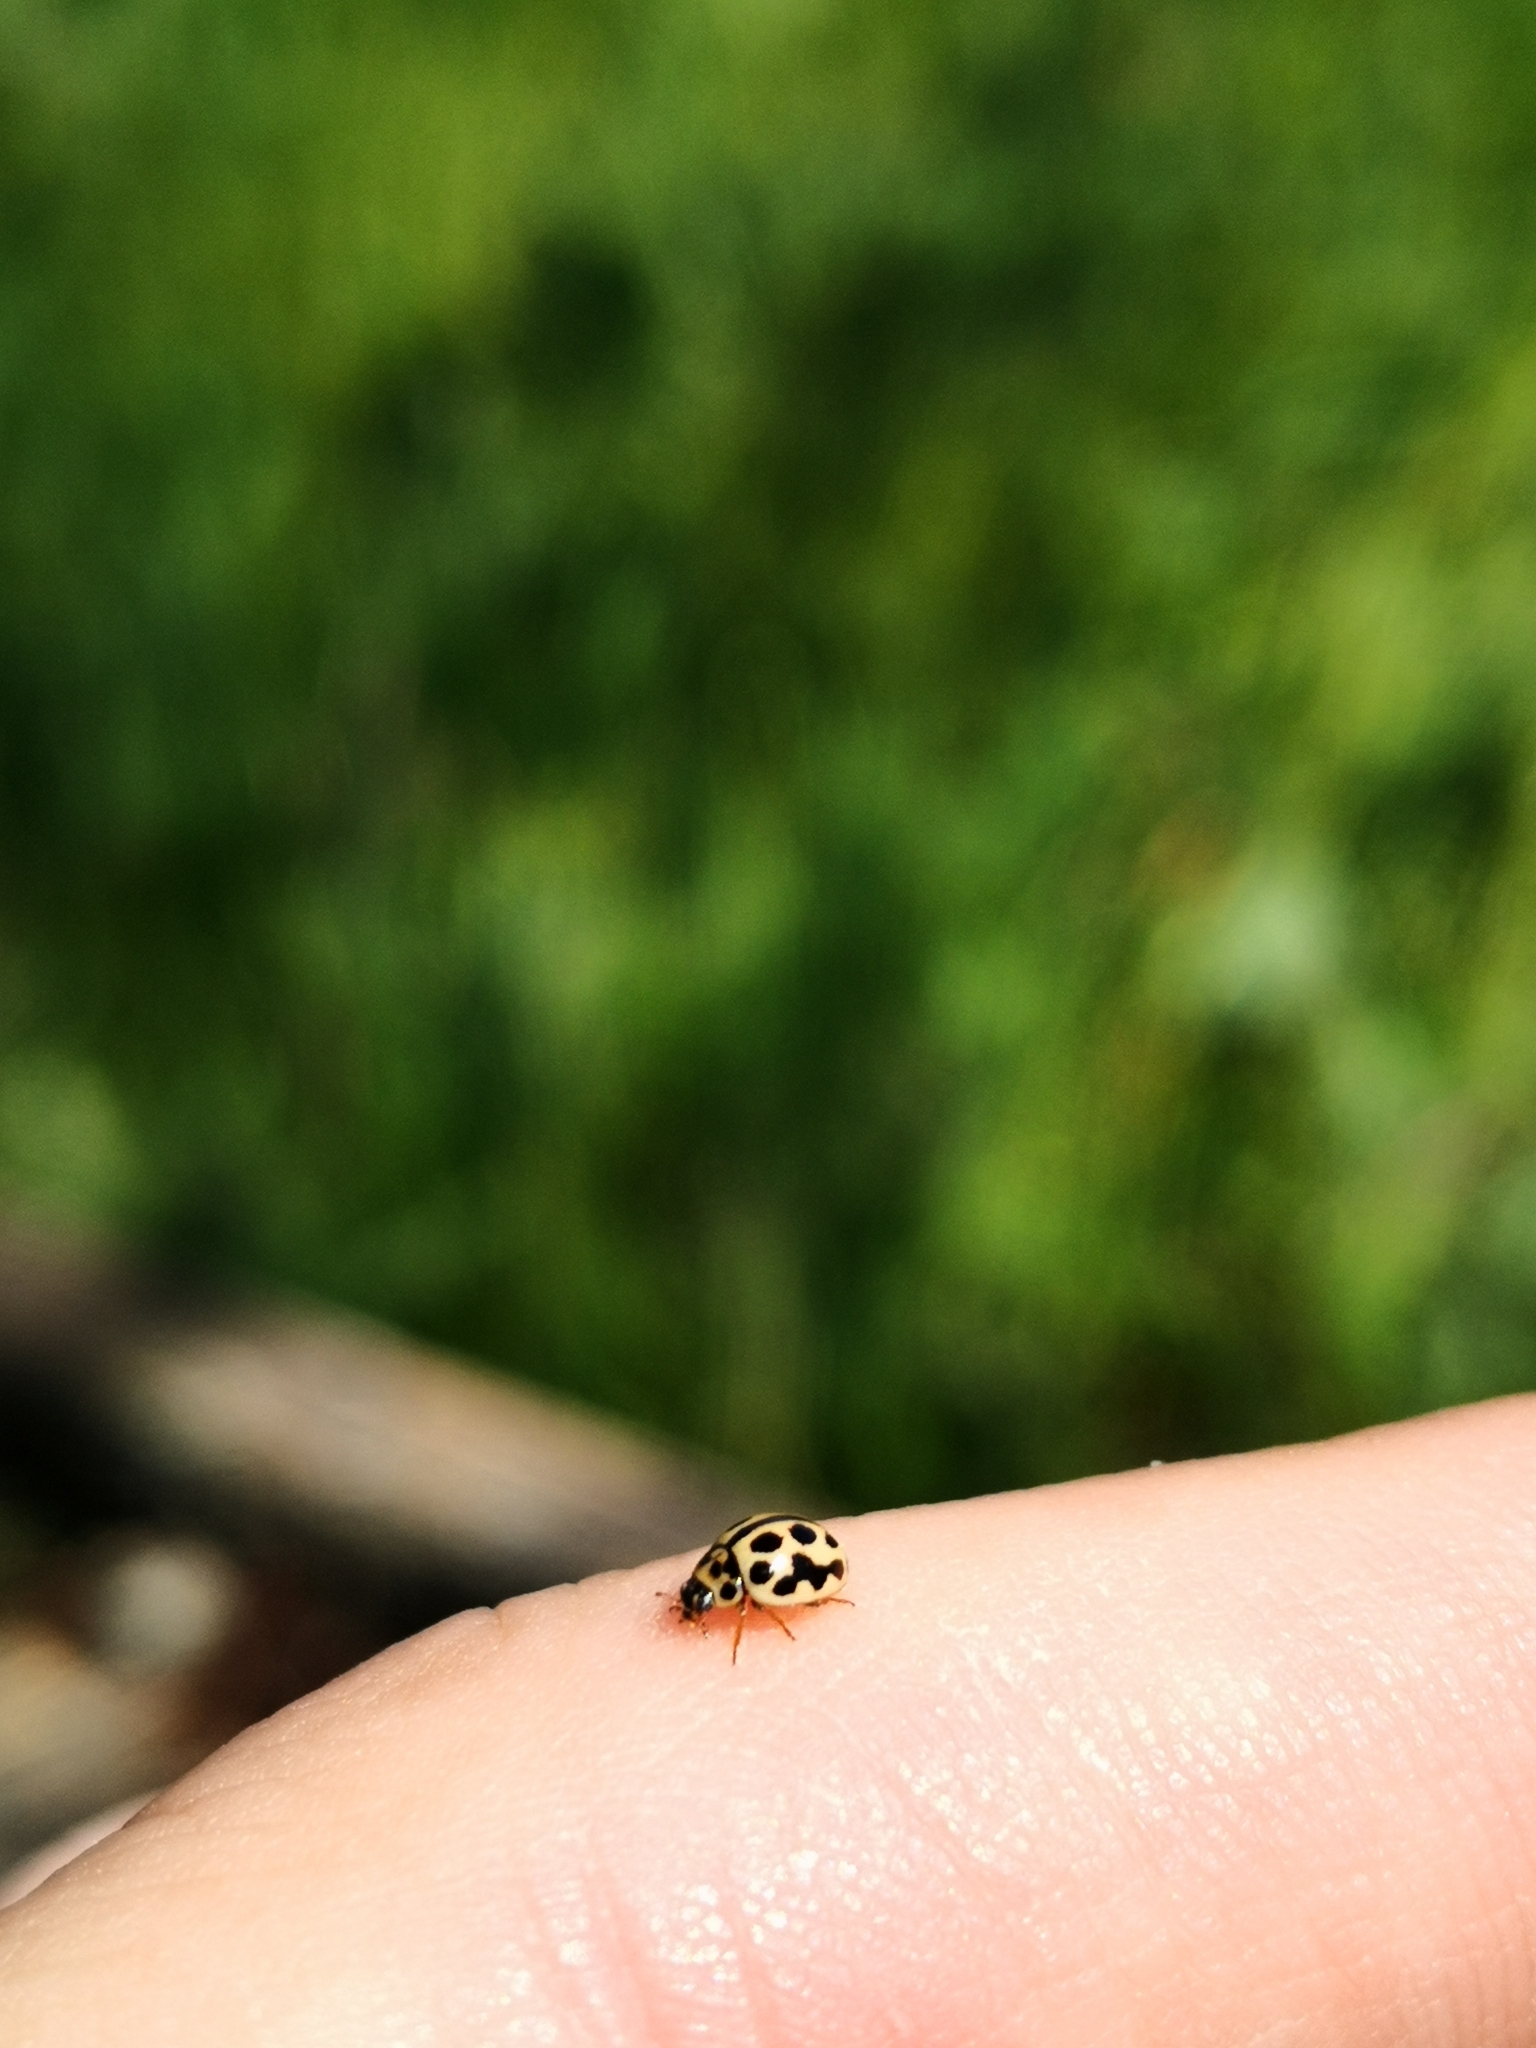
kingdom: Animalia
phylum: Arthropoda
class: Insecta
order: Coleoptera
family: Coccinellidae
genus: Tytthaspis
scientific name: Tytthaspis sedecimpunctata
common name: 16-spot ladybird
